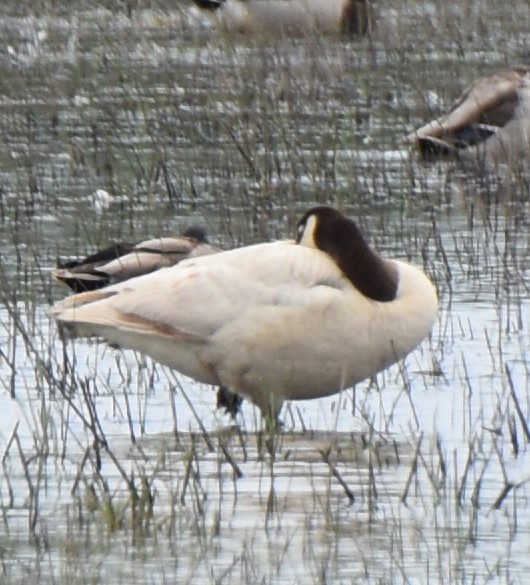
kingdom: Animalia
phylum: Chordata
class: Aves
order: Anseriformes
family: Anatidae
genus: Branta
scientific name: Branta canadensis
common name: Canada goose
